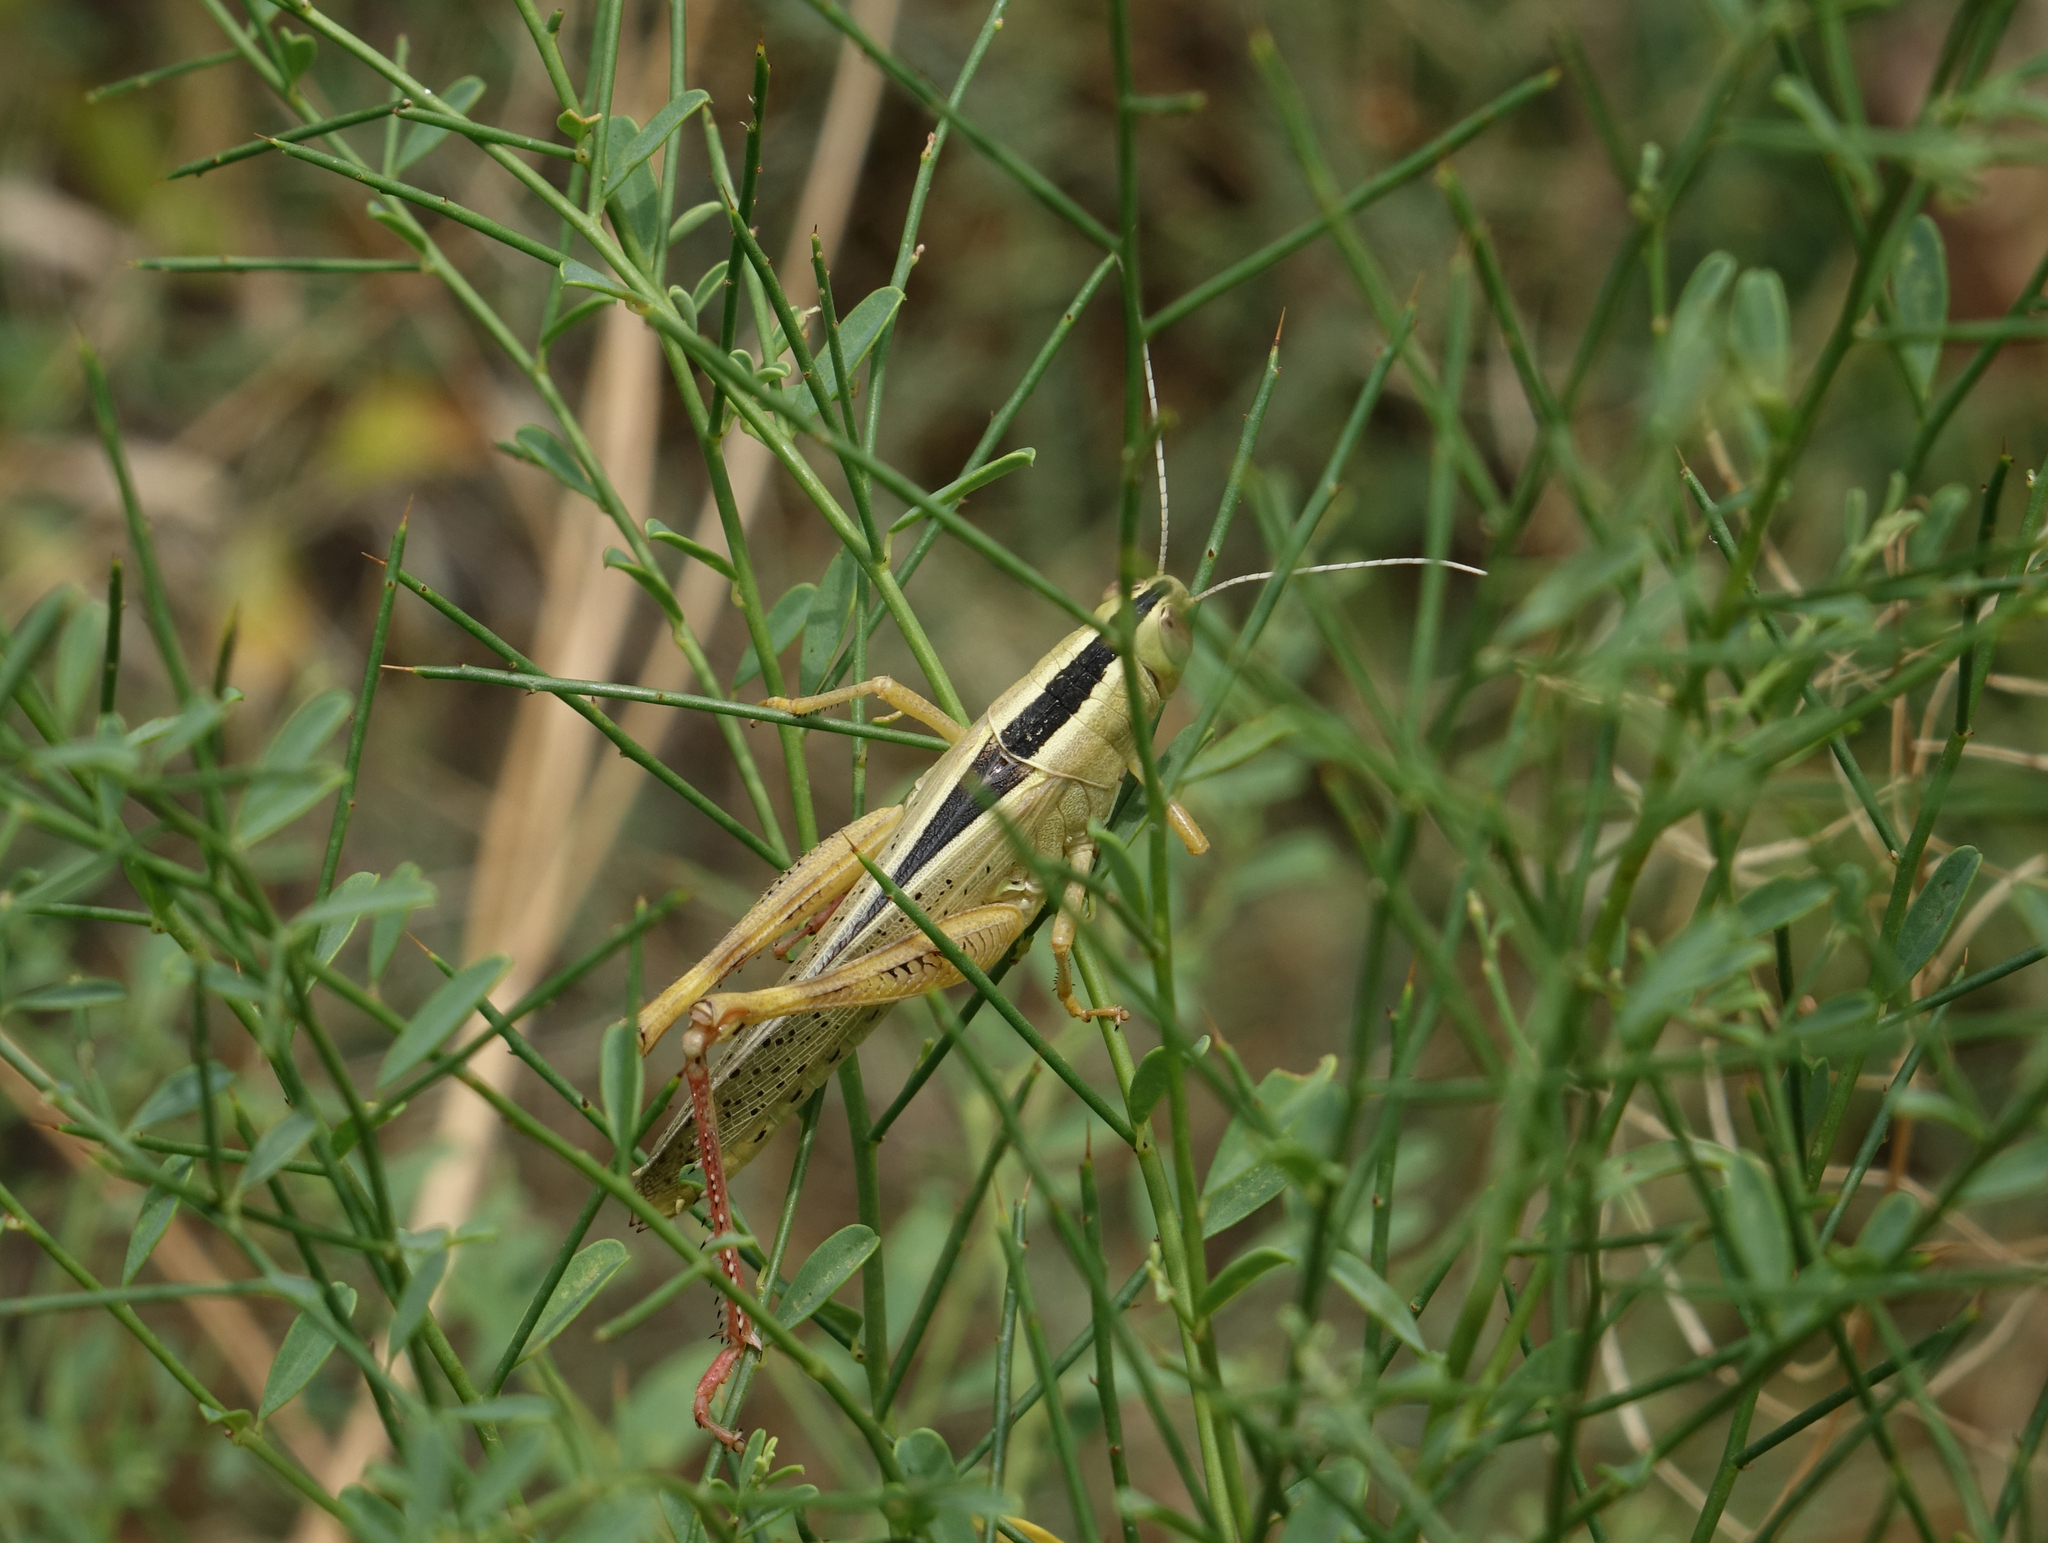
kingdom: Animalia
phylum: Arthropoda
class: Insecta
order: Orthoptera
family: Acrididae
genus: Heteracris
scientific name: Heteracris pterosticha
